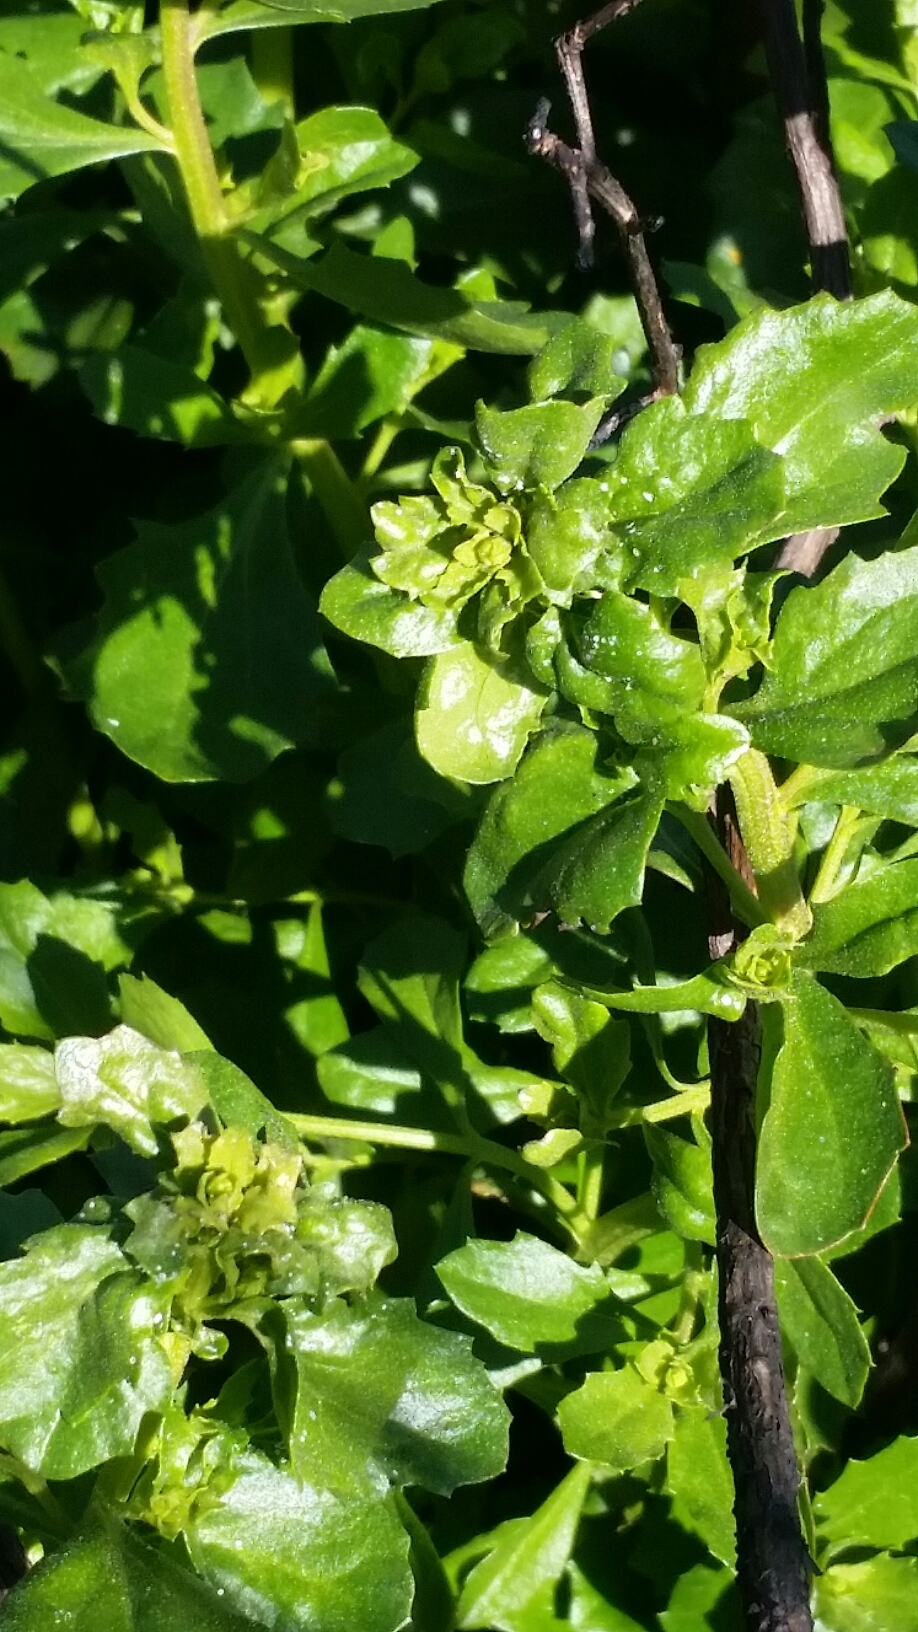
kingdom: Plantae
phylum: Tracheophyta
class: Magnoliopsida
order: Asterales
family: Asteraceae
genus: Baccharis
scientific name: Baccharis pilularis
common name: Coyotebrush
